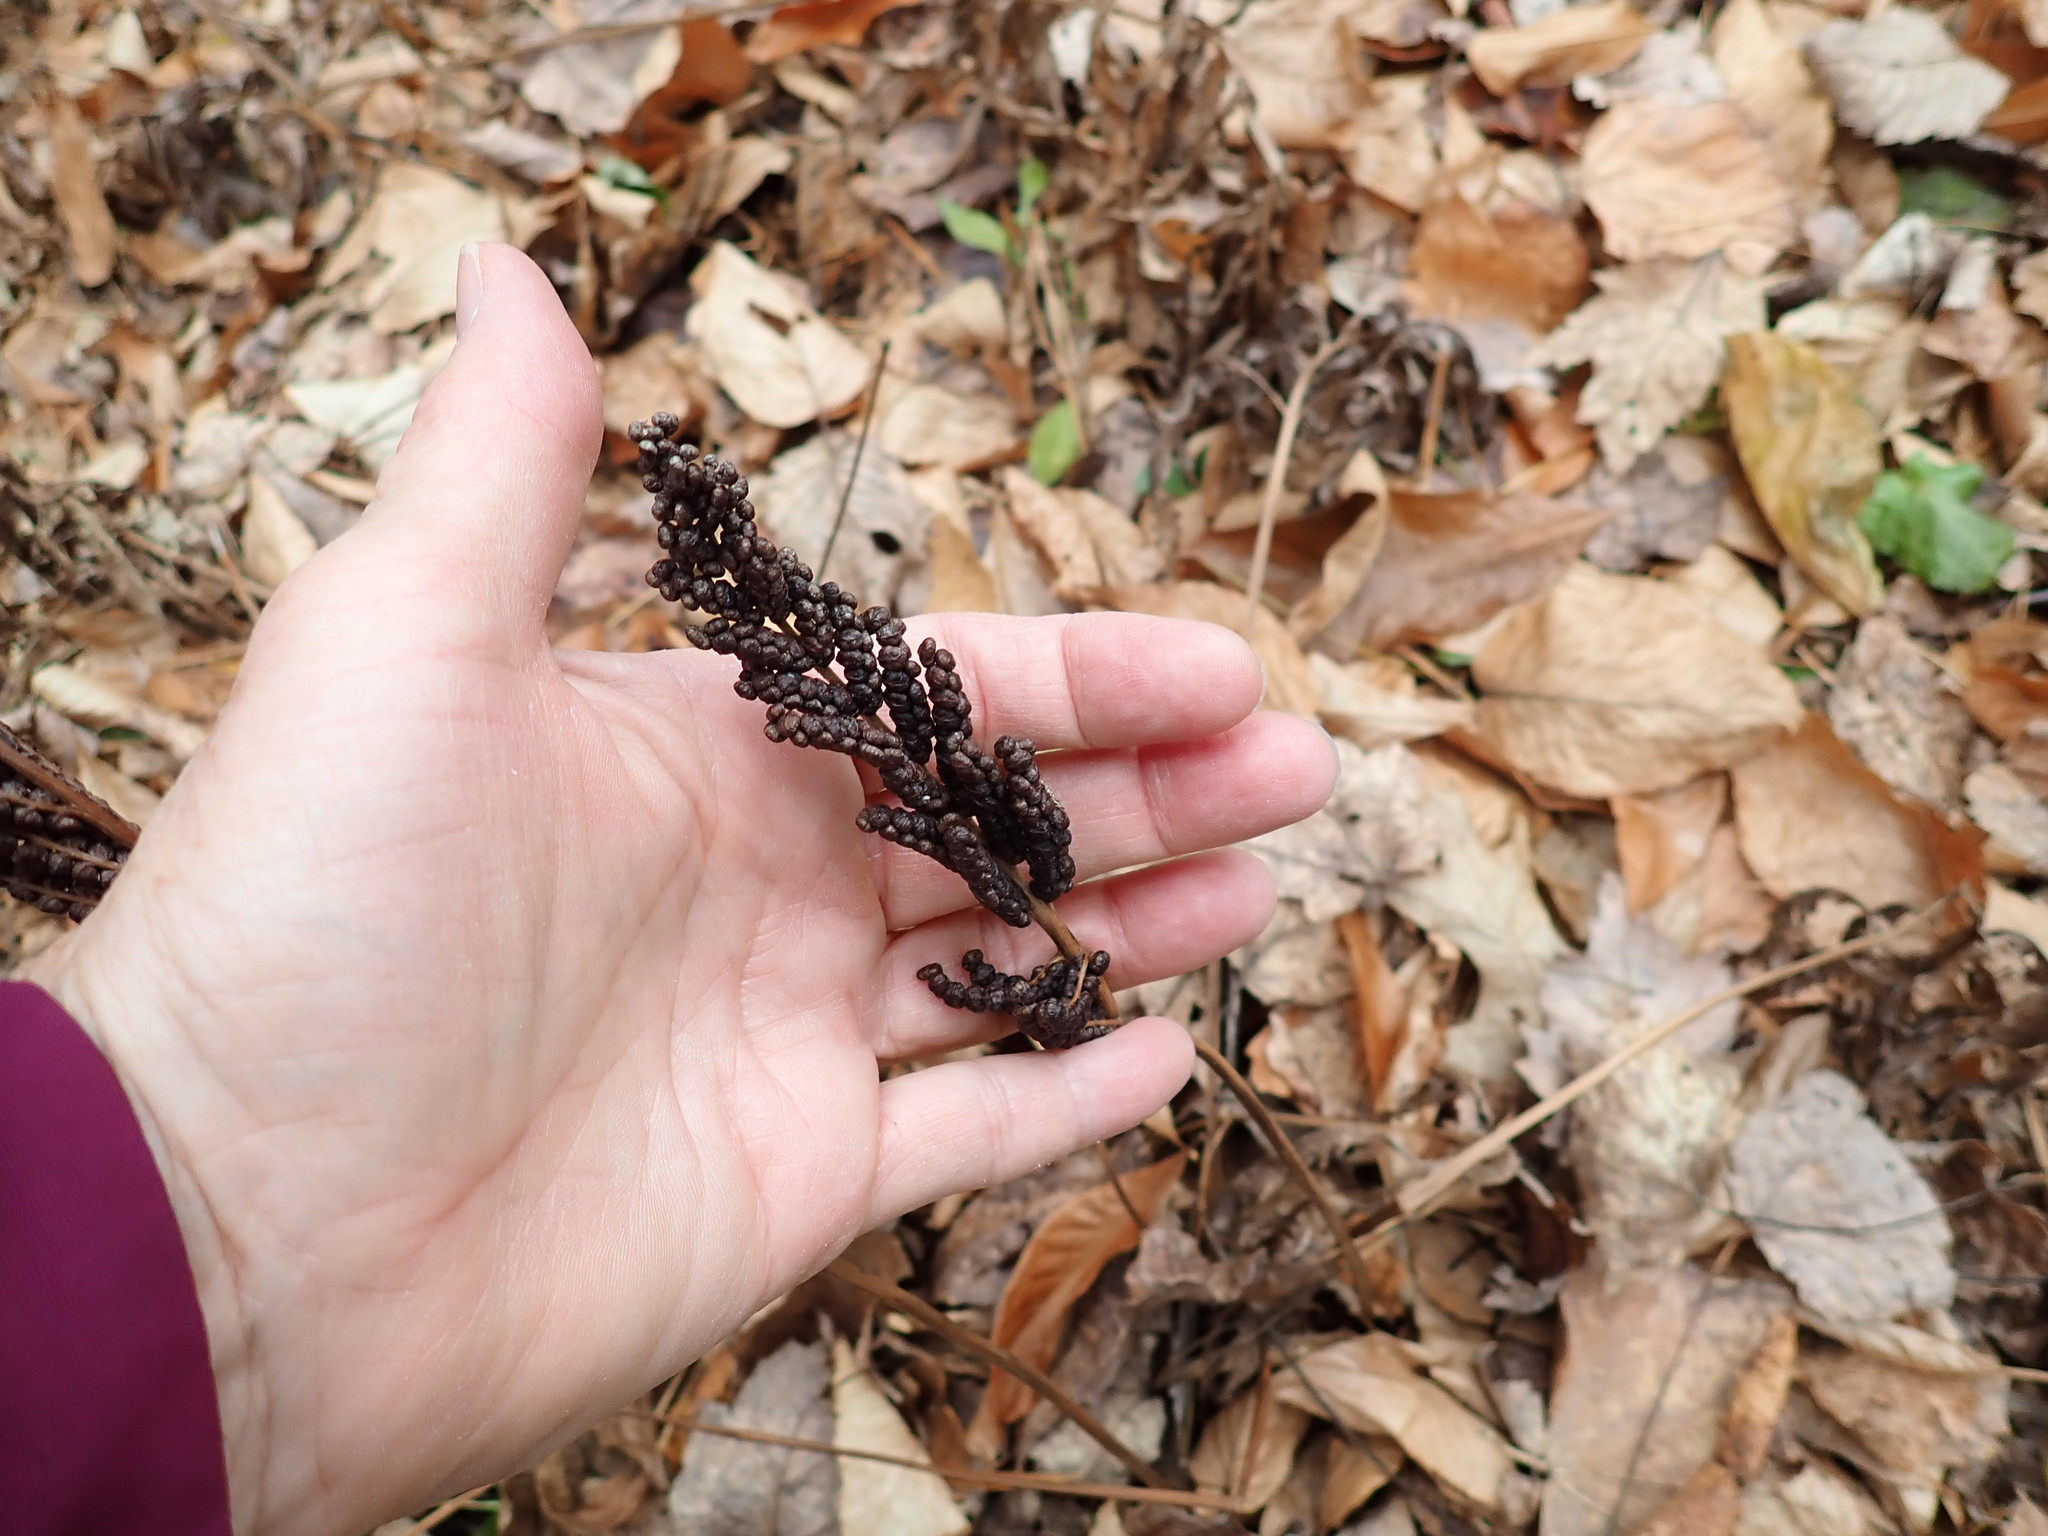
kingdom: Plantae
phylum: Tracheophyta
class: Polypodiopsida
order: Polypodiales
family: Onocleaceae
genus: Onoclea
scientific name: Onoclea sensibilis
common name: Sensitive fern
